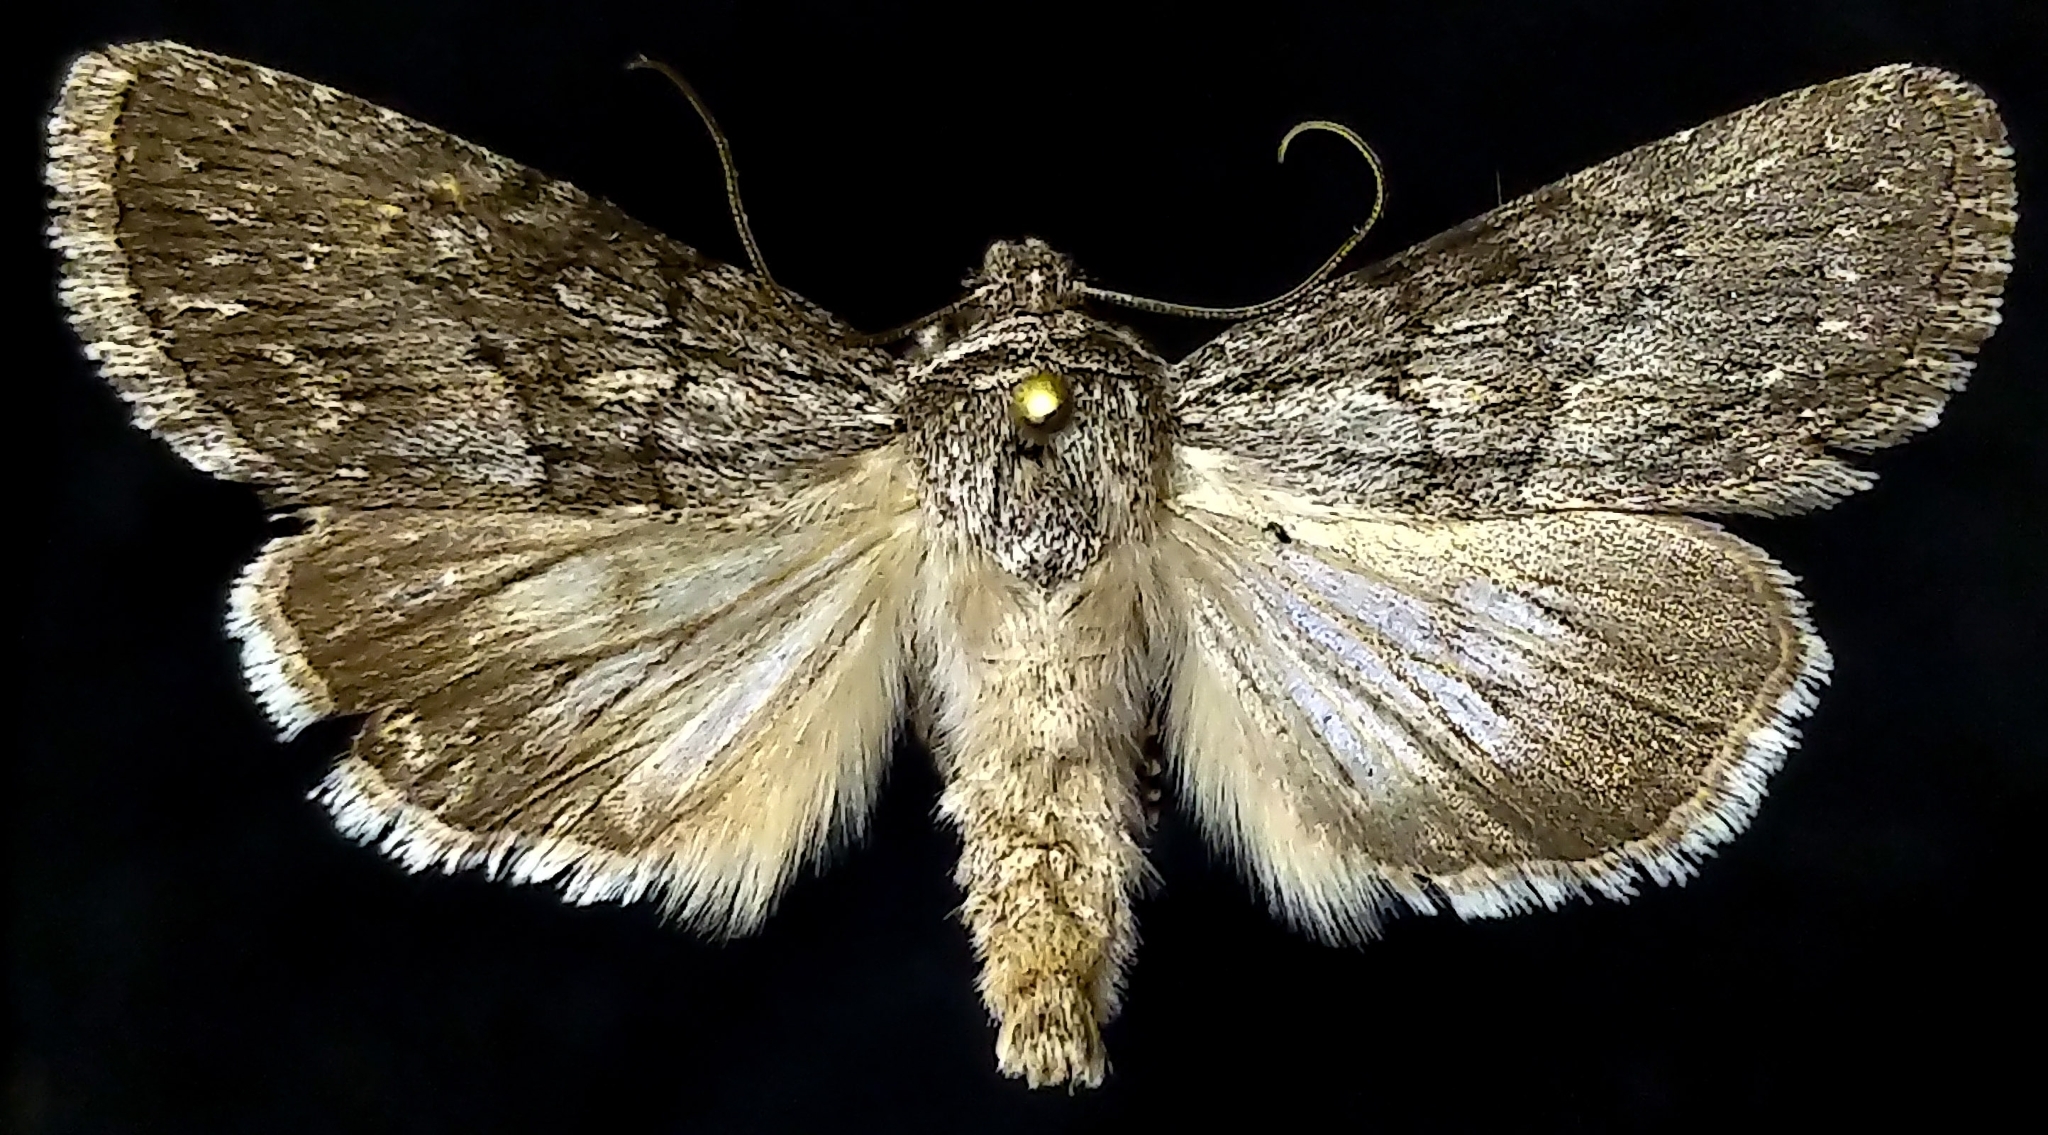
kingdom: Animalia
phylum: Arthropoda
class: Insecta
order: Lepidoptera
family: Noctuidae
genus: Sympistis
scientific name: Sympistis riparia
